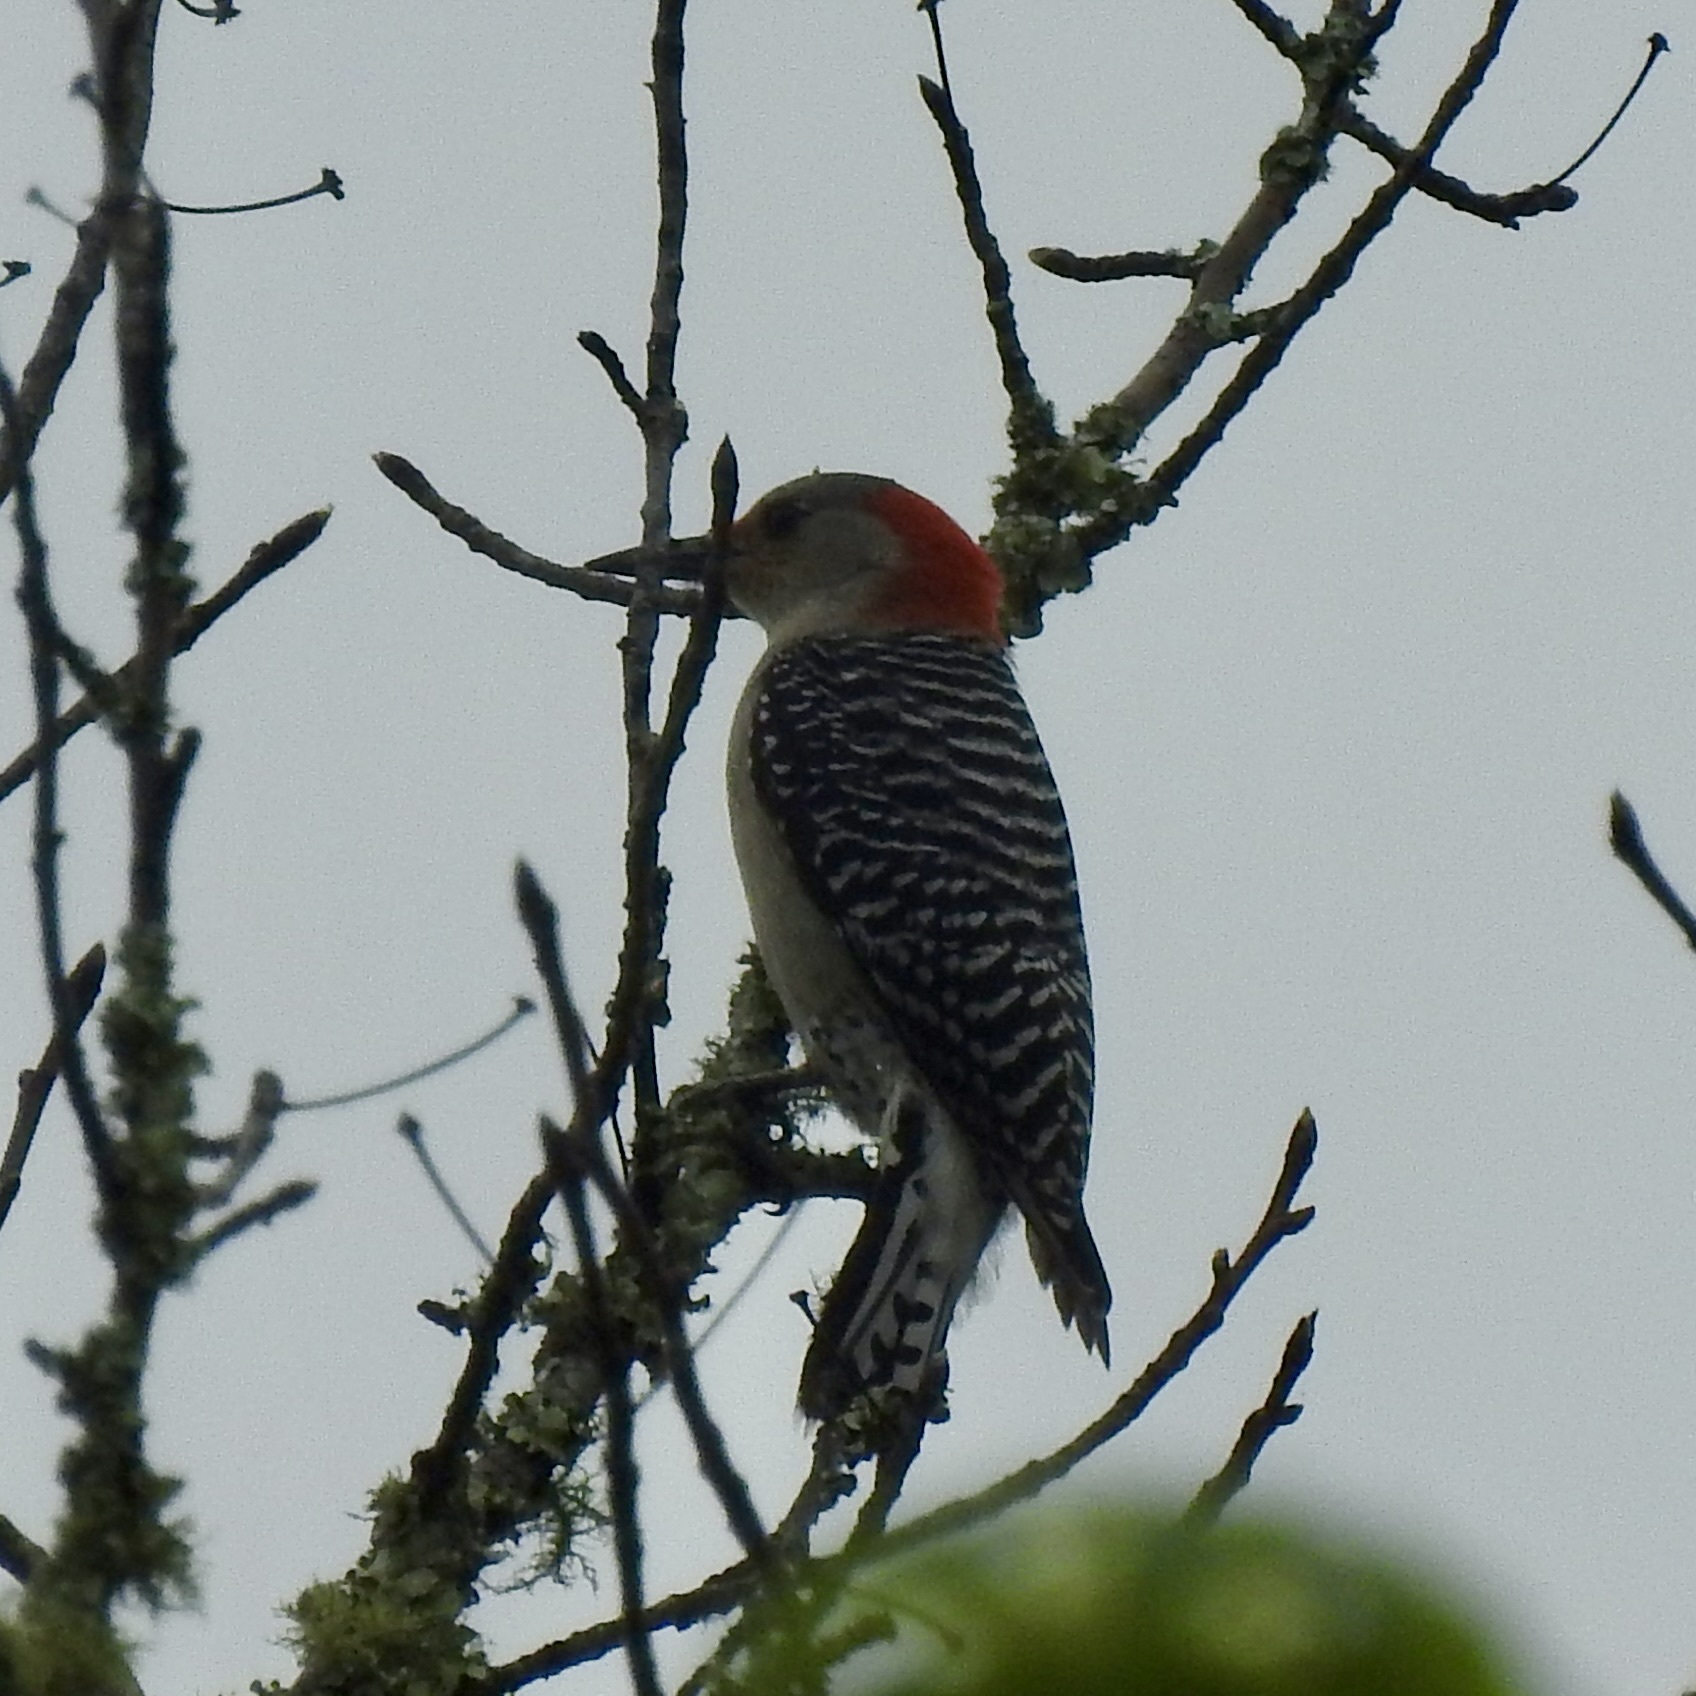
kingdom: Animalia
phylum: Chordata
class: Aves
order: Piciformes
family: Picidae
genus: Melanerpes
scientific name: Melanerpes carolinus
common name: Red-bellied woodpecker
